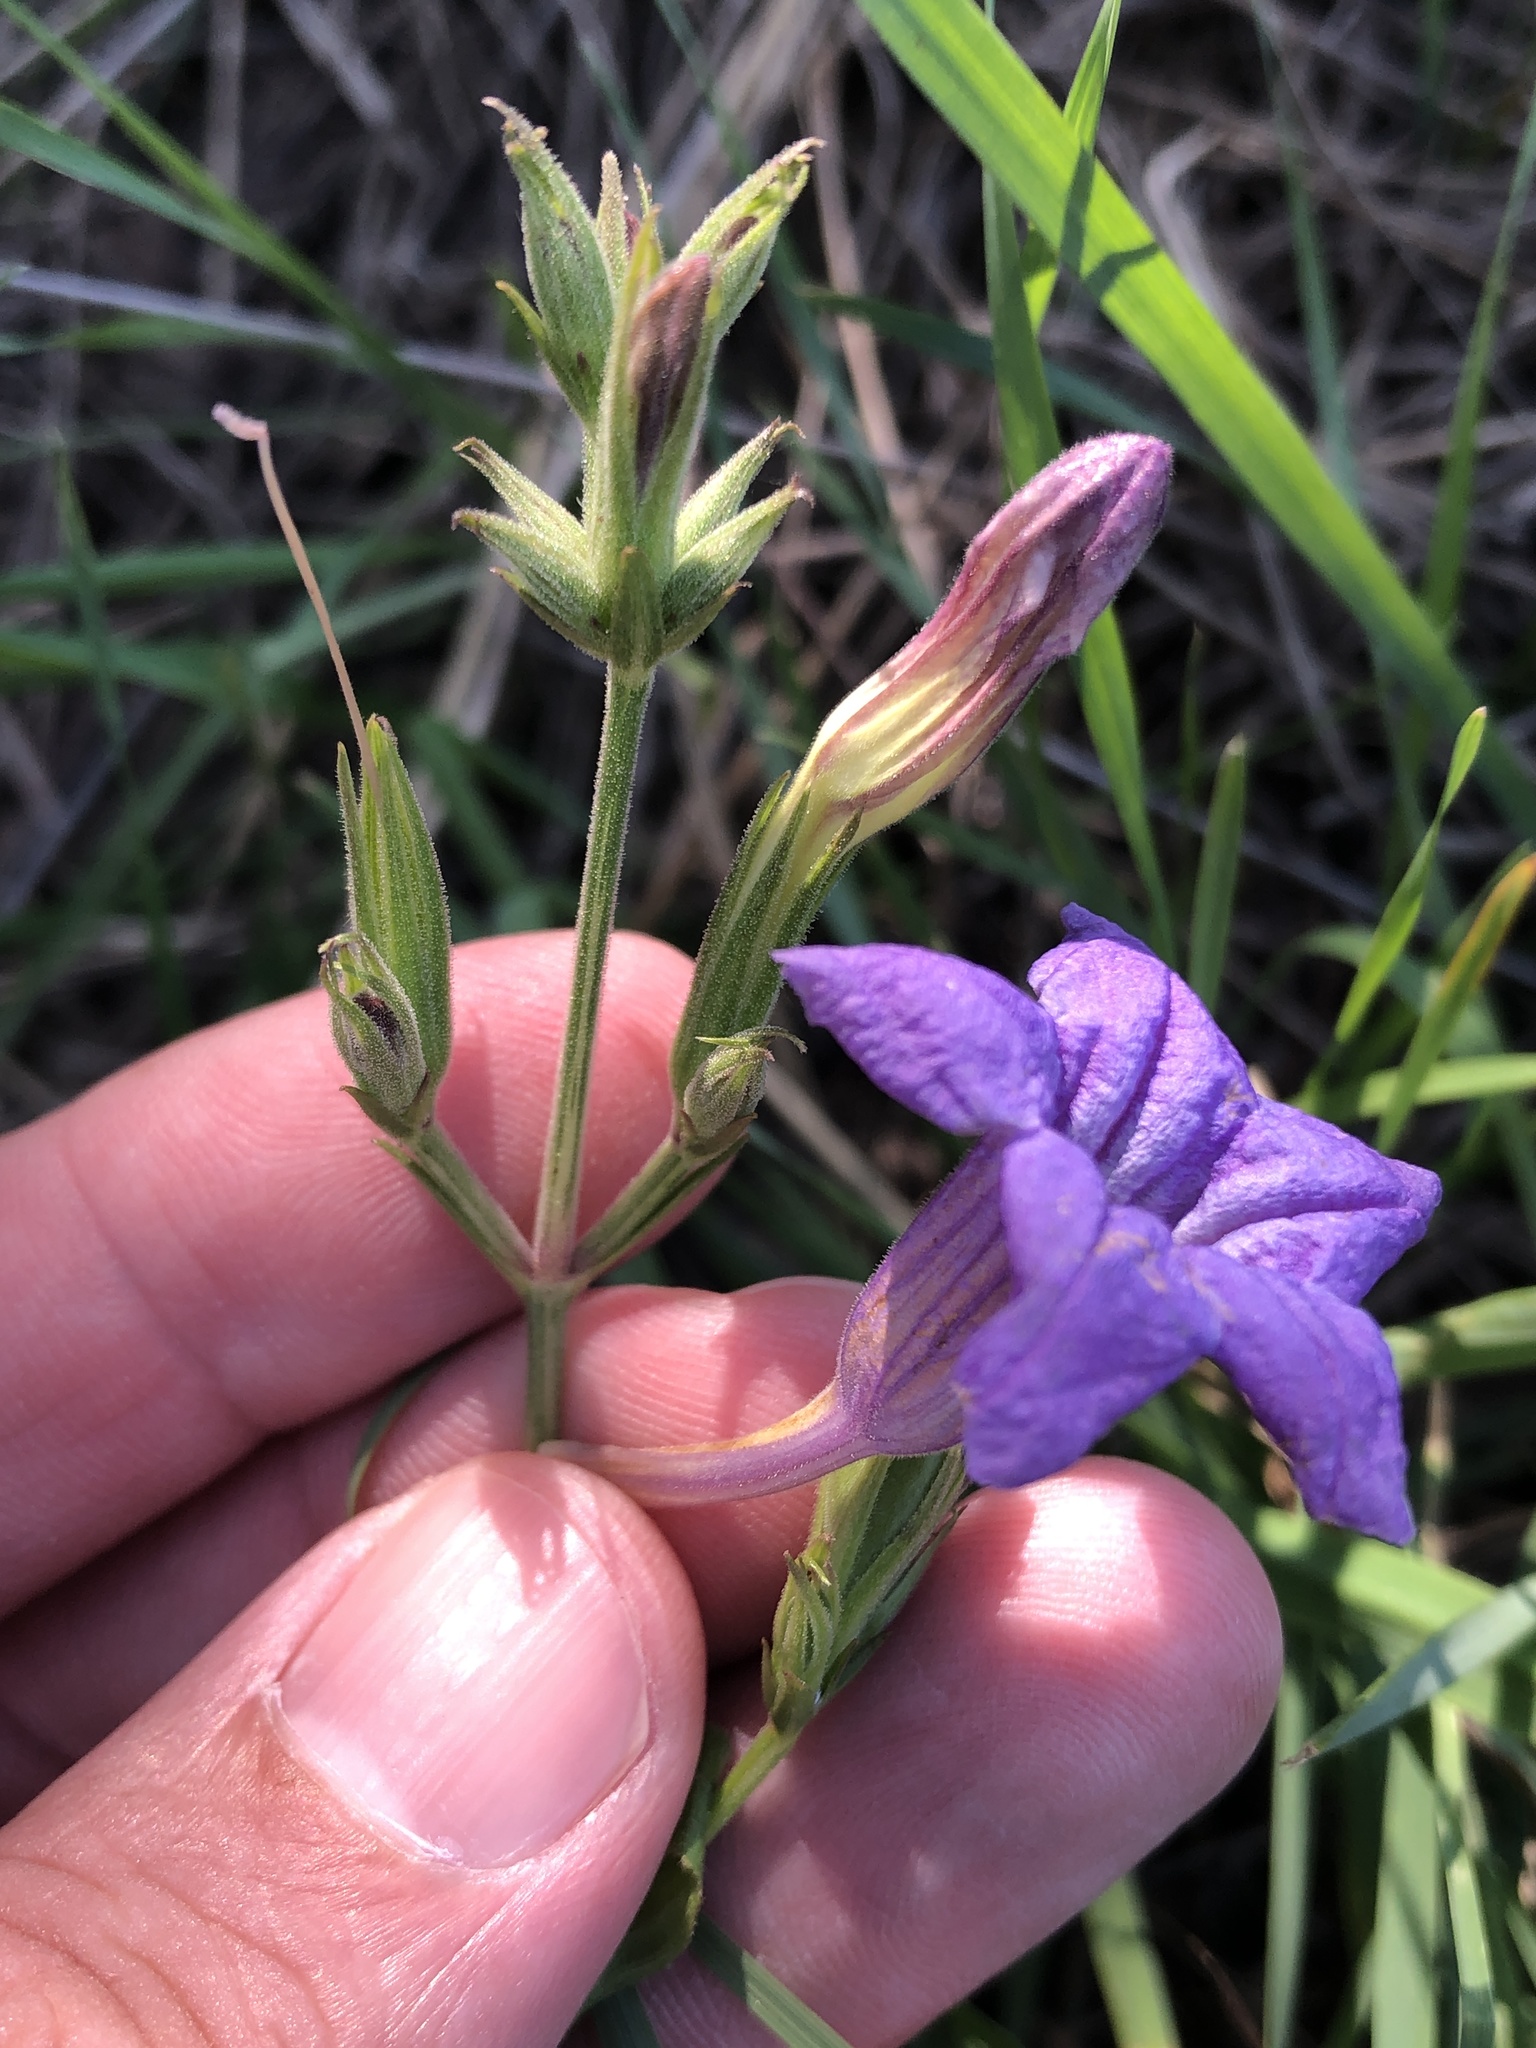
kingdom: Plantae
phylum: Tracheophyta
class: Magnoliopsida
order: Lamiales
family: Acanthaceae
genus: Ruellia
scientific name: Ruellia ciliatiflora
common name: Hairyflower wild petunia
